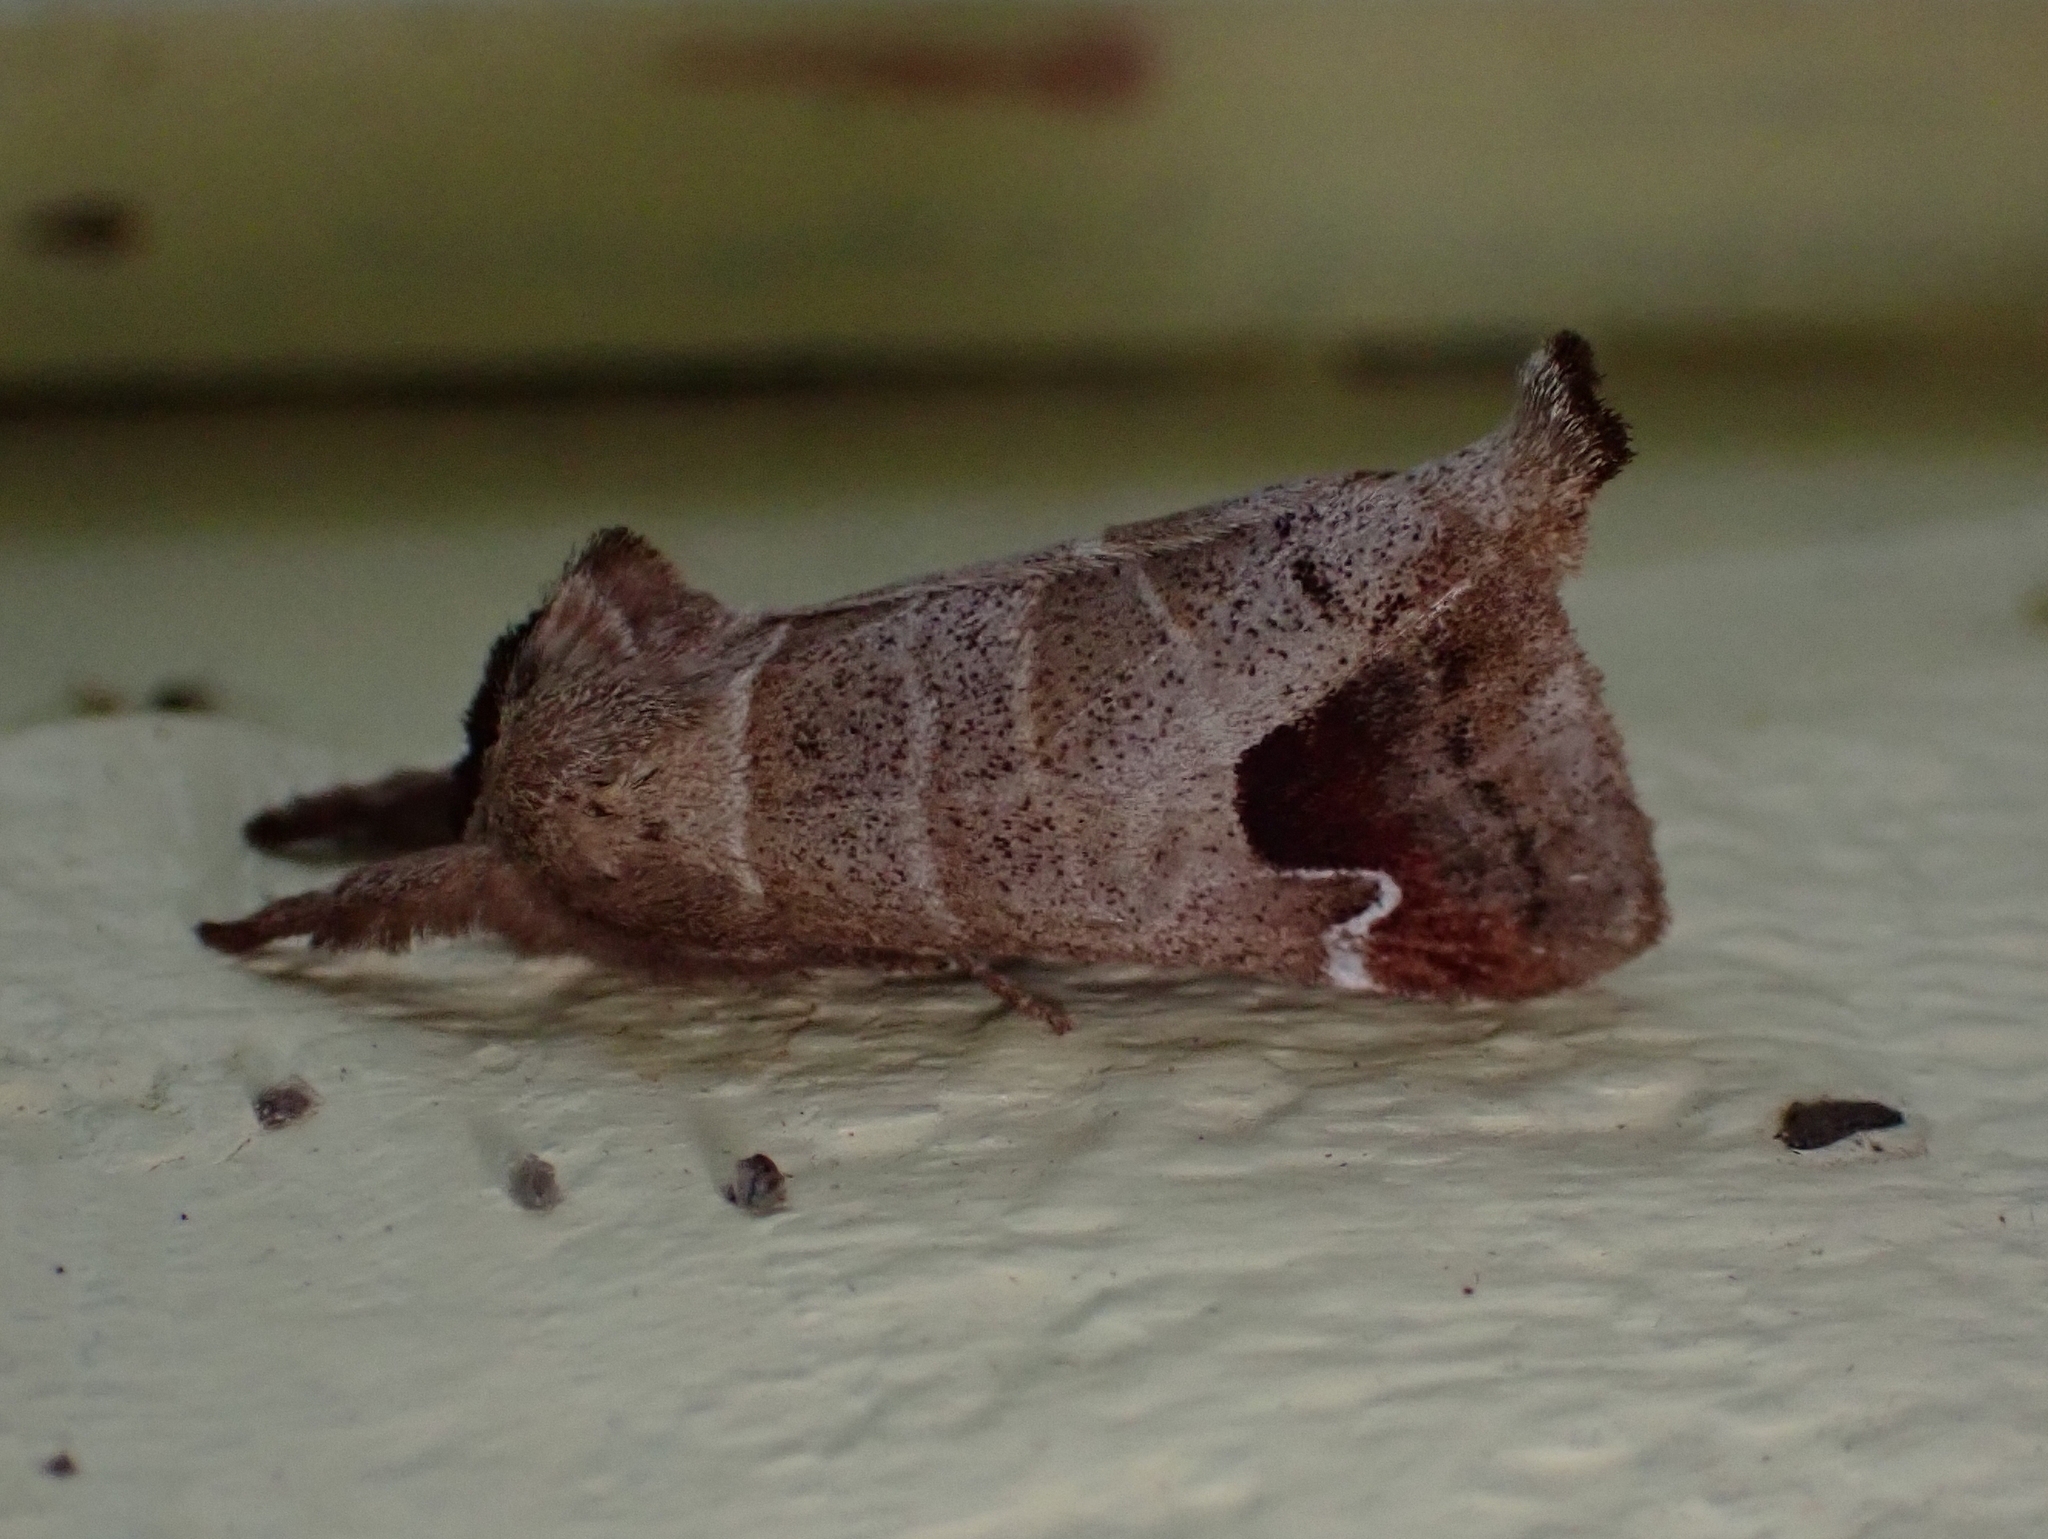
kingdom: Animalia
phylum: Arthropoda
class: Insecta
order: Lepidoptera
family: Notodontidae
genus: Clostera
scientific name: Clostera albosigma
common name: Sigmoid prominent
